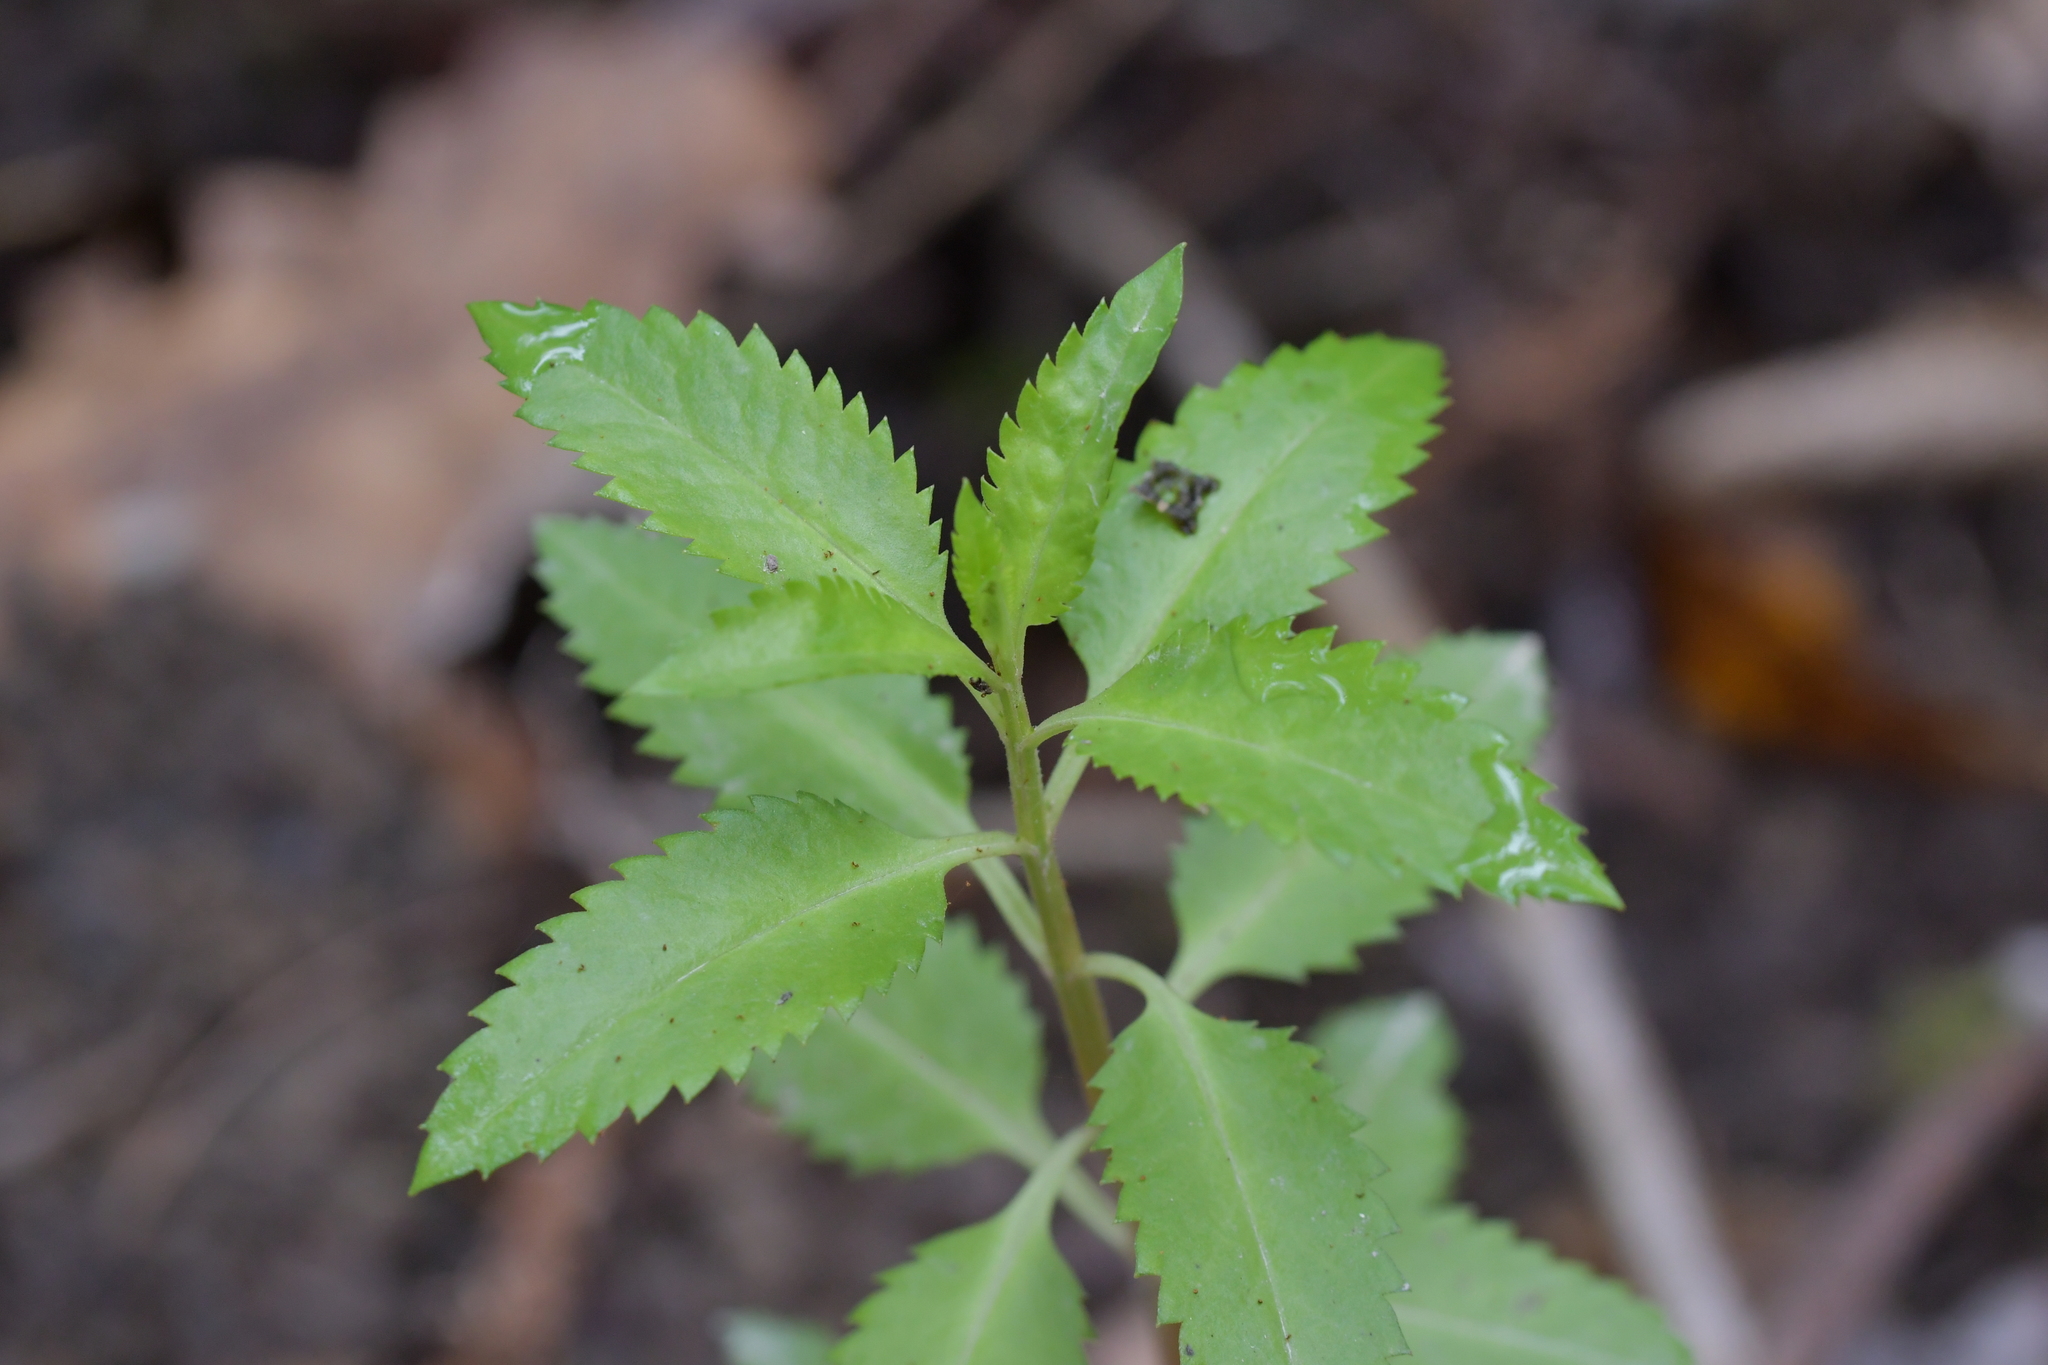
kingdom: Plantae
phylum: Tracheophyta
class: Magnoliopsida
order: Saxifragales
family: Haloragaceae
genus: Haloragis
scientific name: Haloragis erecta
